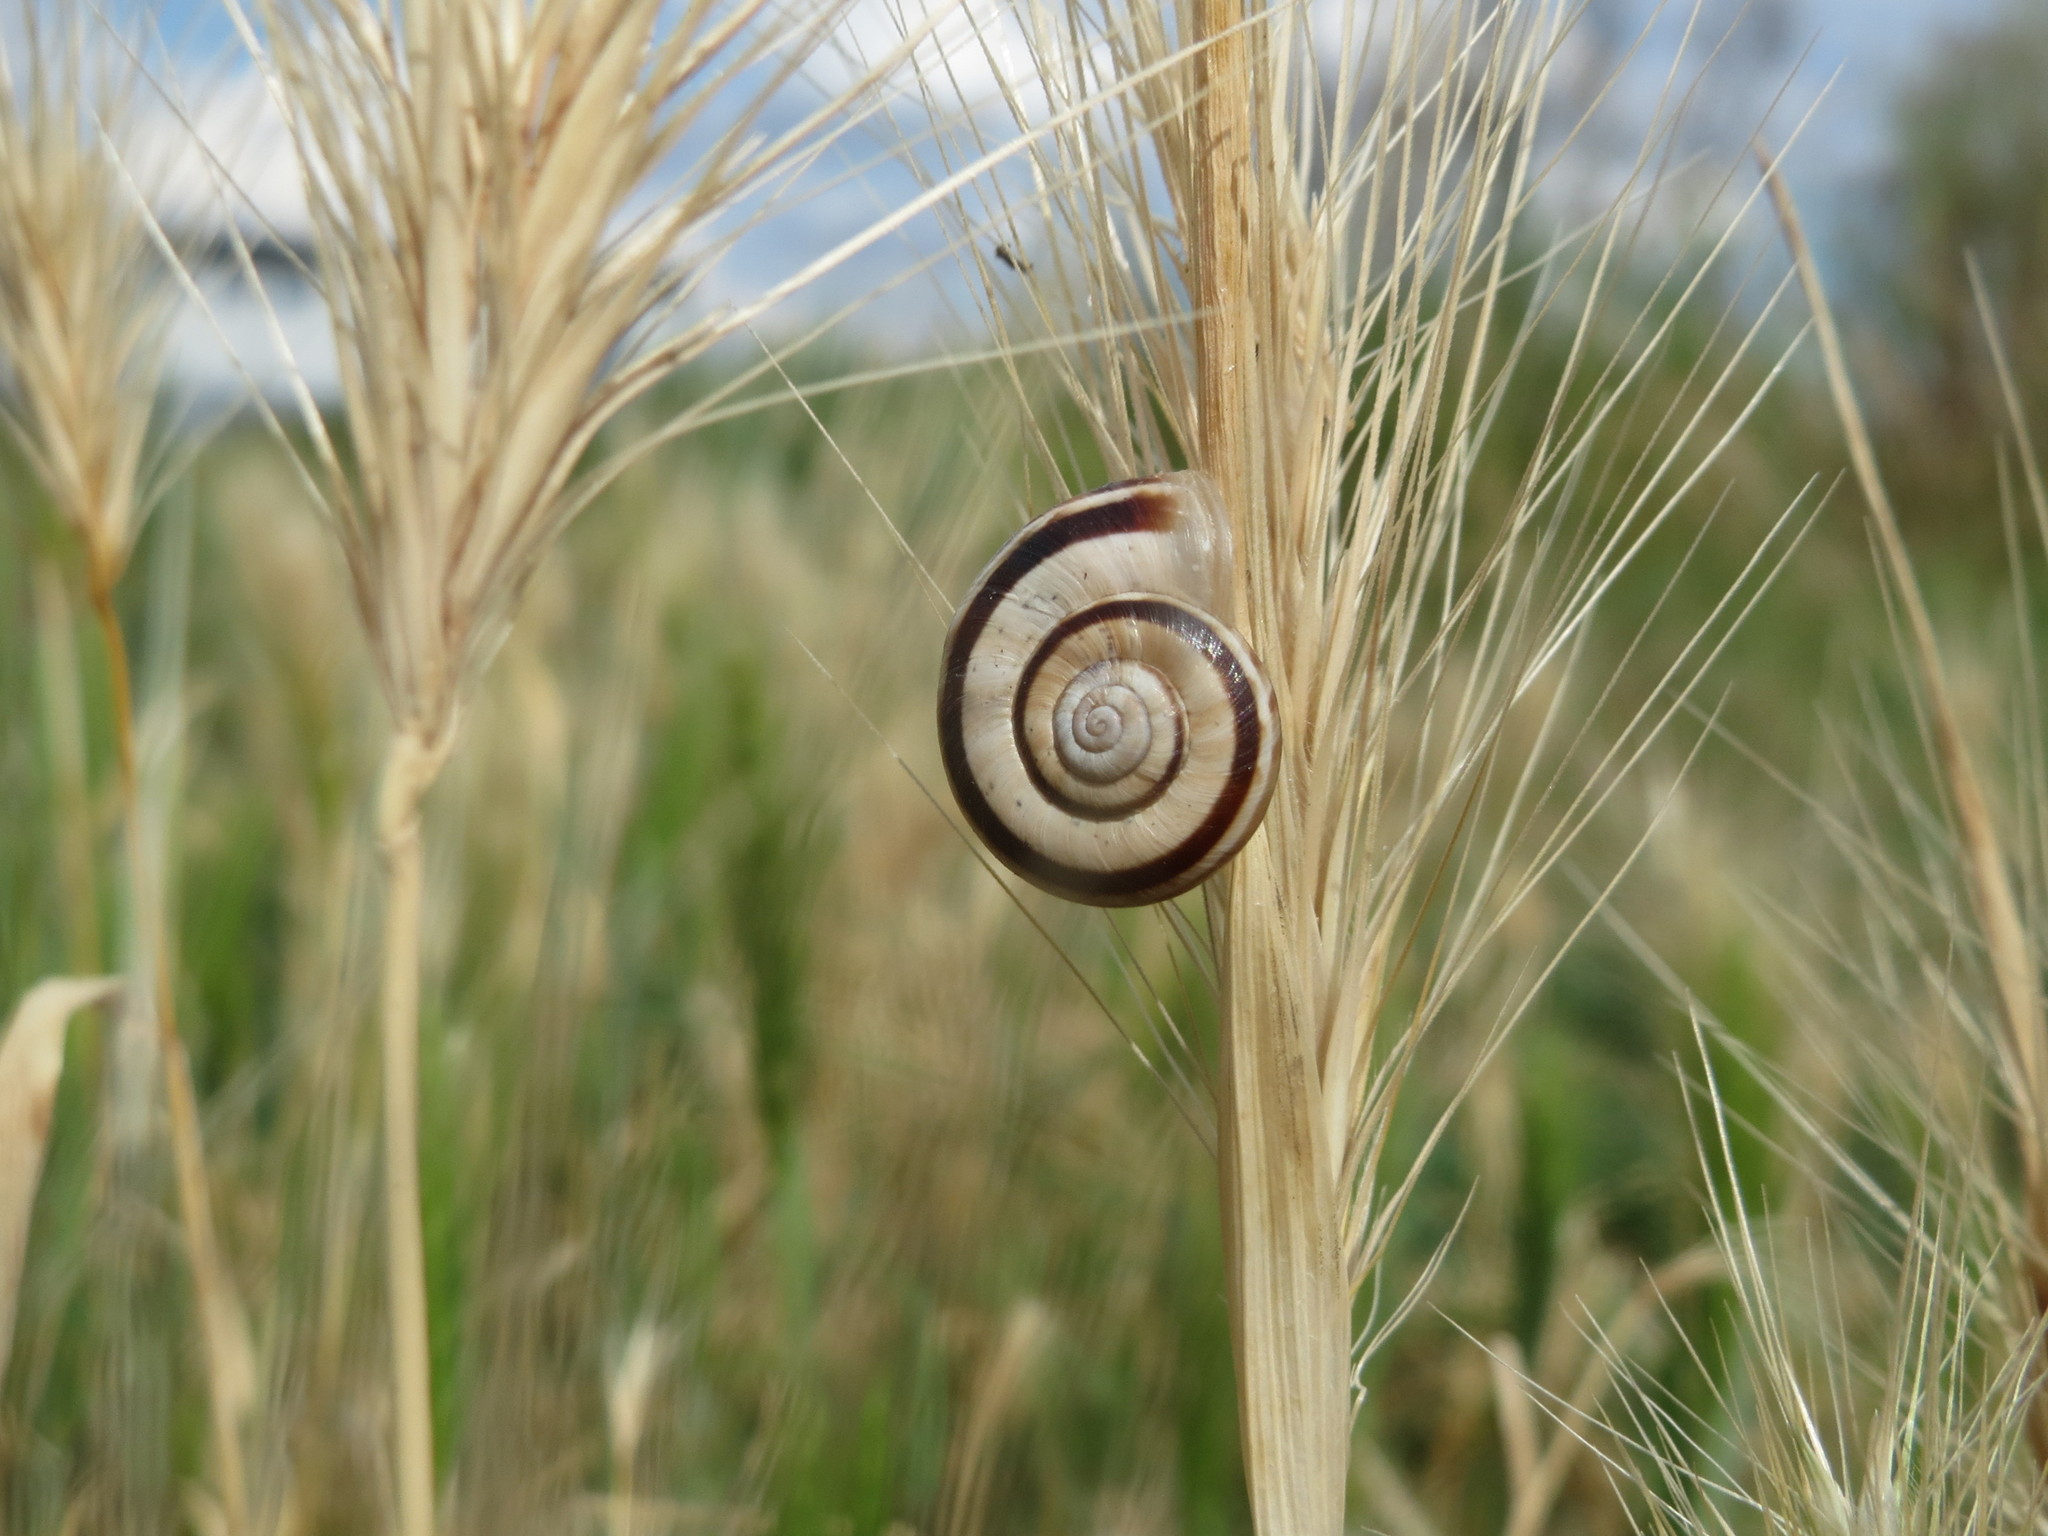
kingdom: Animalia
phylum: Mollusca
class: Gastropoda
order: Stylommatophora
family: Geomitridae
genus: Helicella
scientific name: Helicella itala
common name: Heath snail
